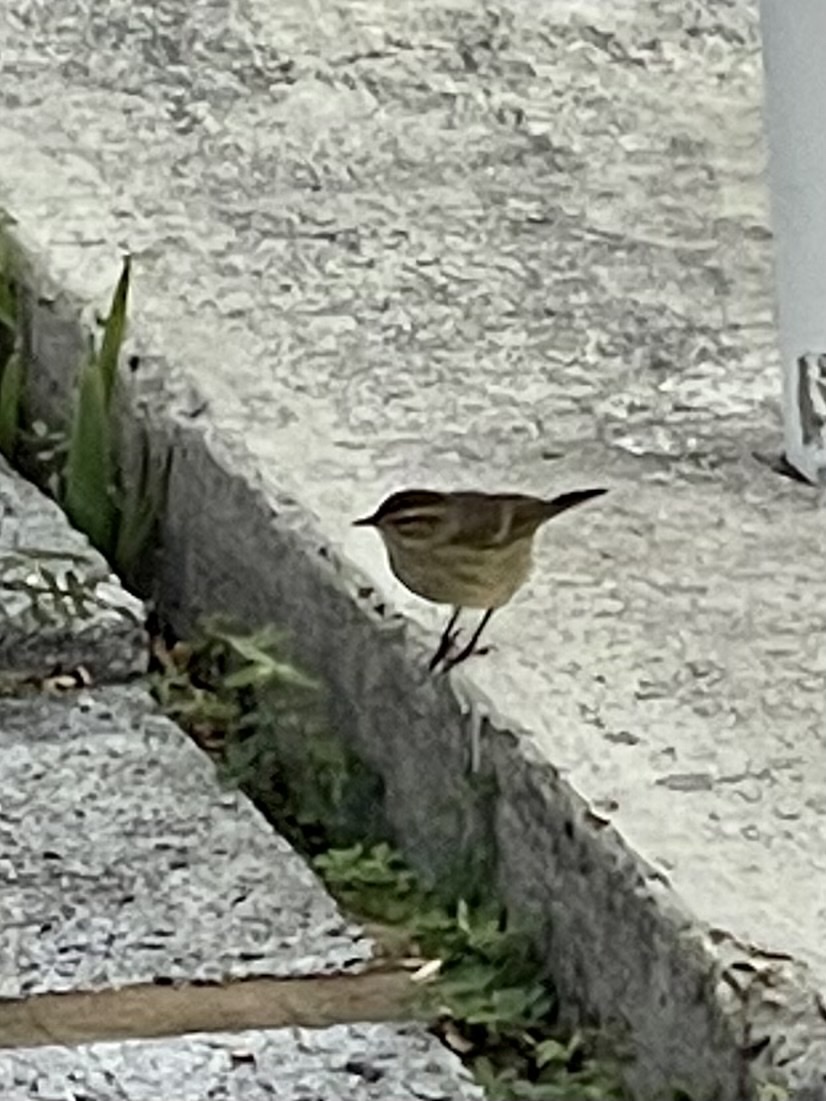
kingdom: Animalia
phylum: Chordata
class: Aves
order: Passeriformes
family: Parulidae
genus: Setophaga
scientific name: Setophaga palmarum
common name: Palm warbler
